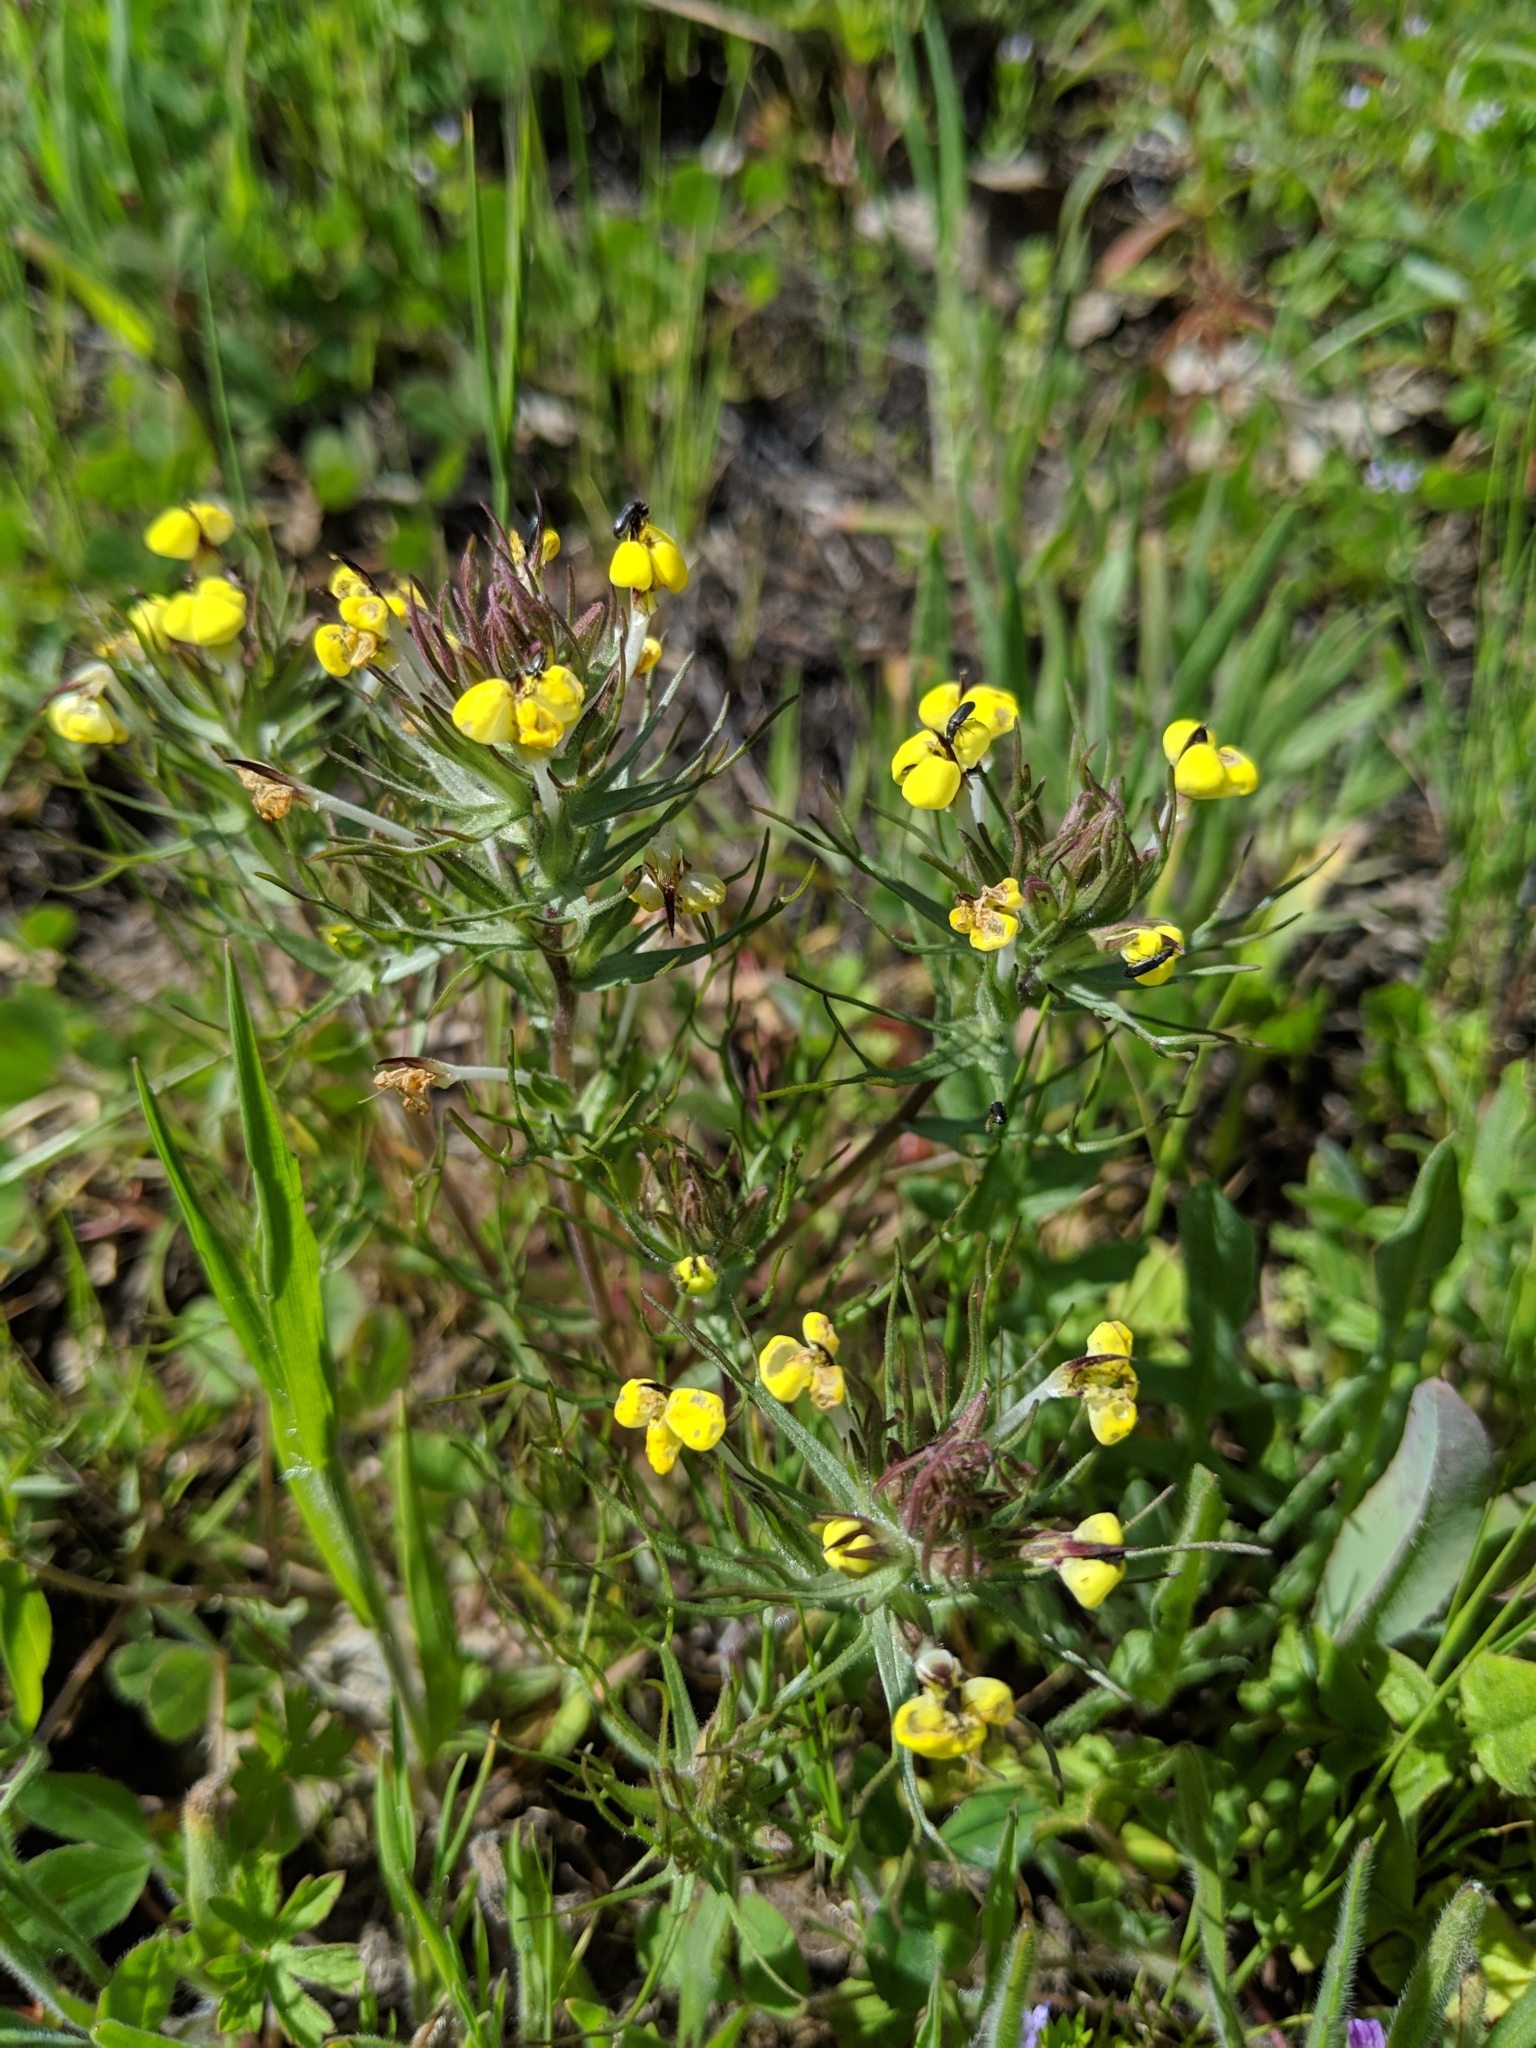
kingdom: Plantae
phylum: Tracheophyta
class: Magnoliopsida
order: Lamiales
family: Orobanchaceae
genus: Triphysaria
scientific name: Triphysaria eriantha
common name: Johnny-tuck
